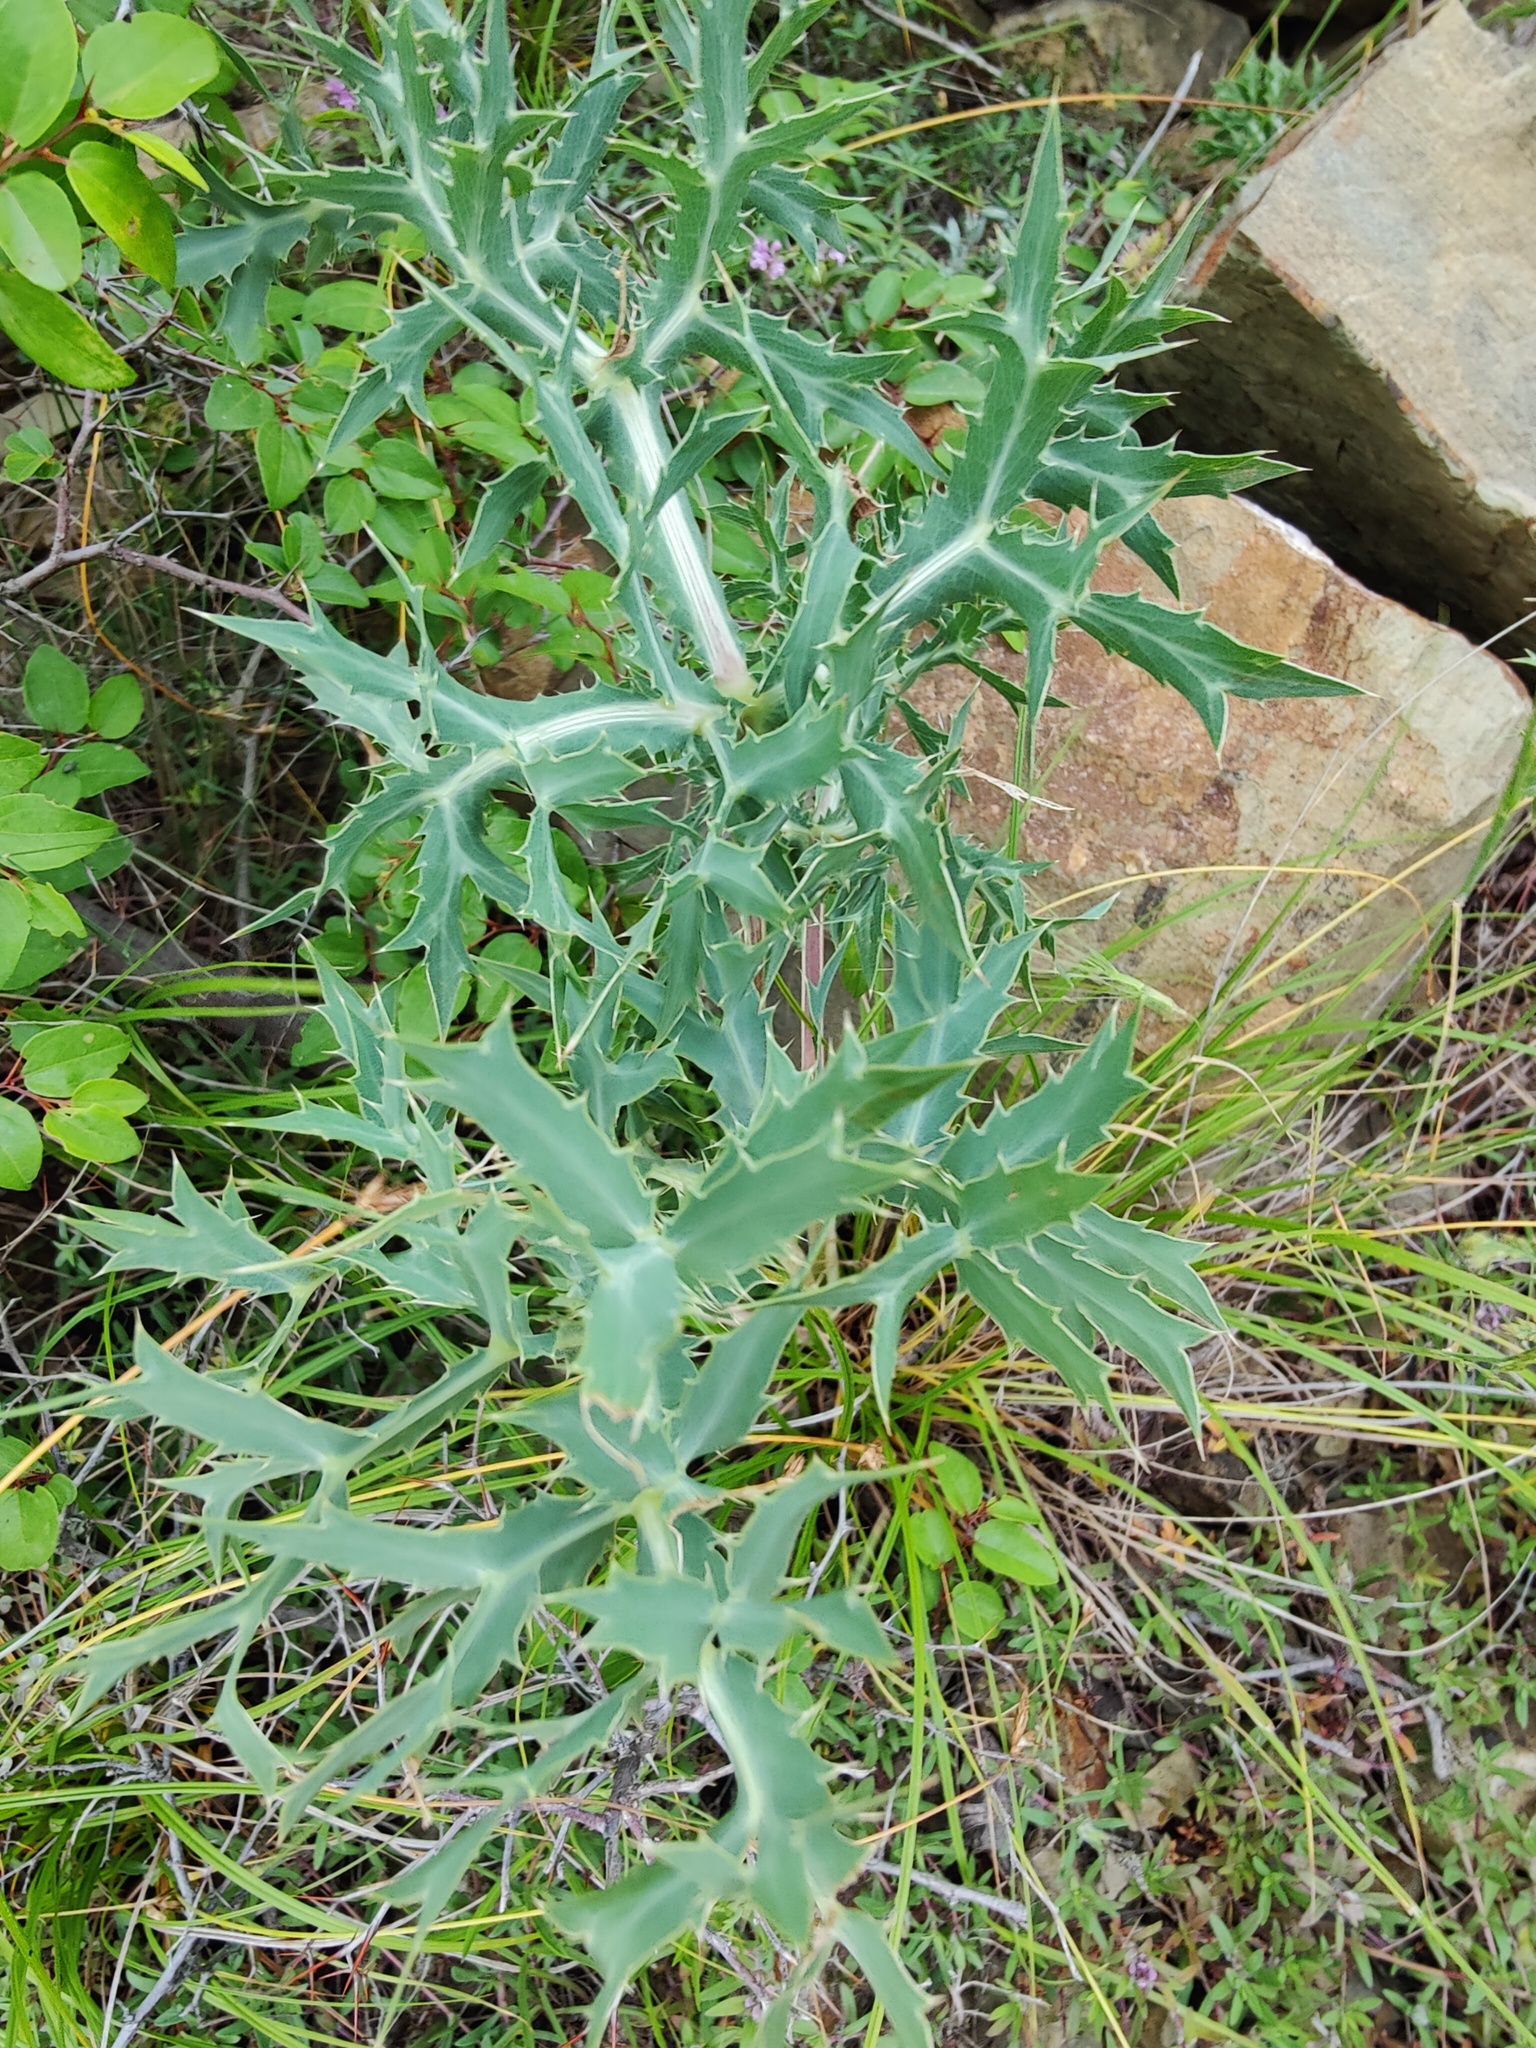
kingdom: Plantae
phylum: Tracheophyta
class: Magnoliopsida
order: Apiales
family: Apiaceae
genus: Eryngium
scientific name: Eryngium campestre
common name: Field eryngo
